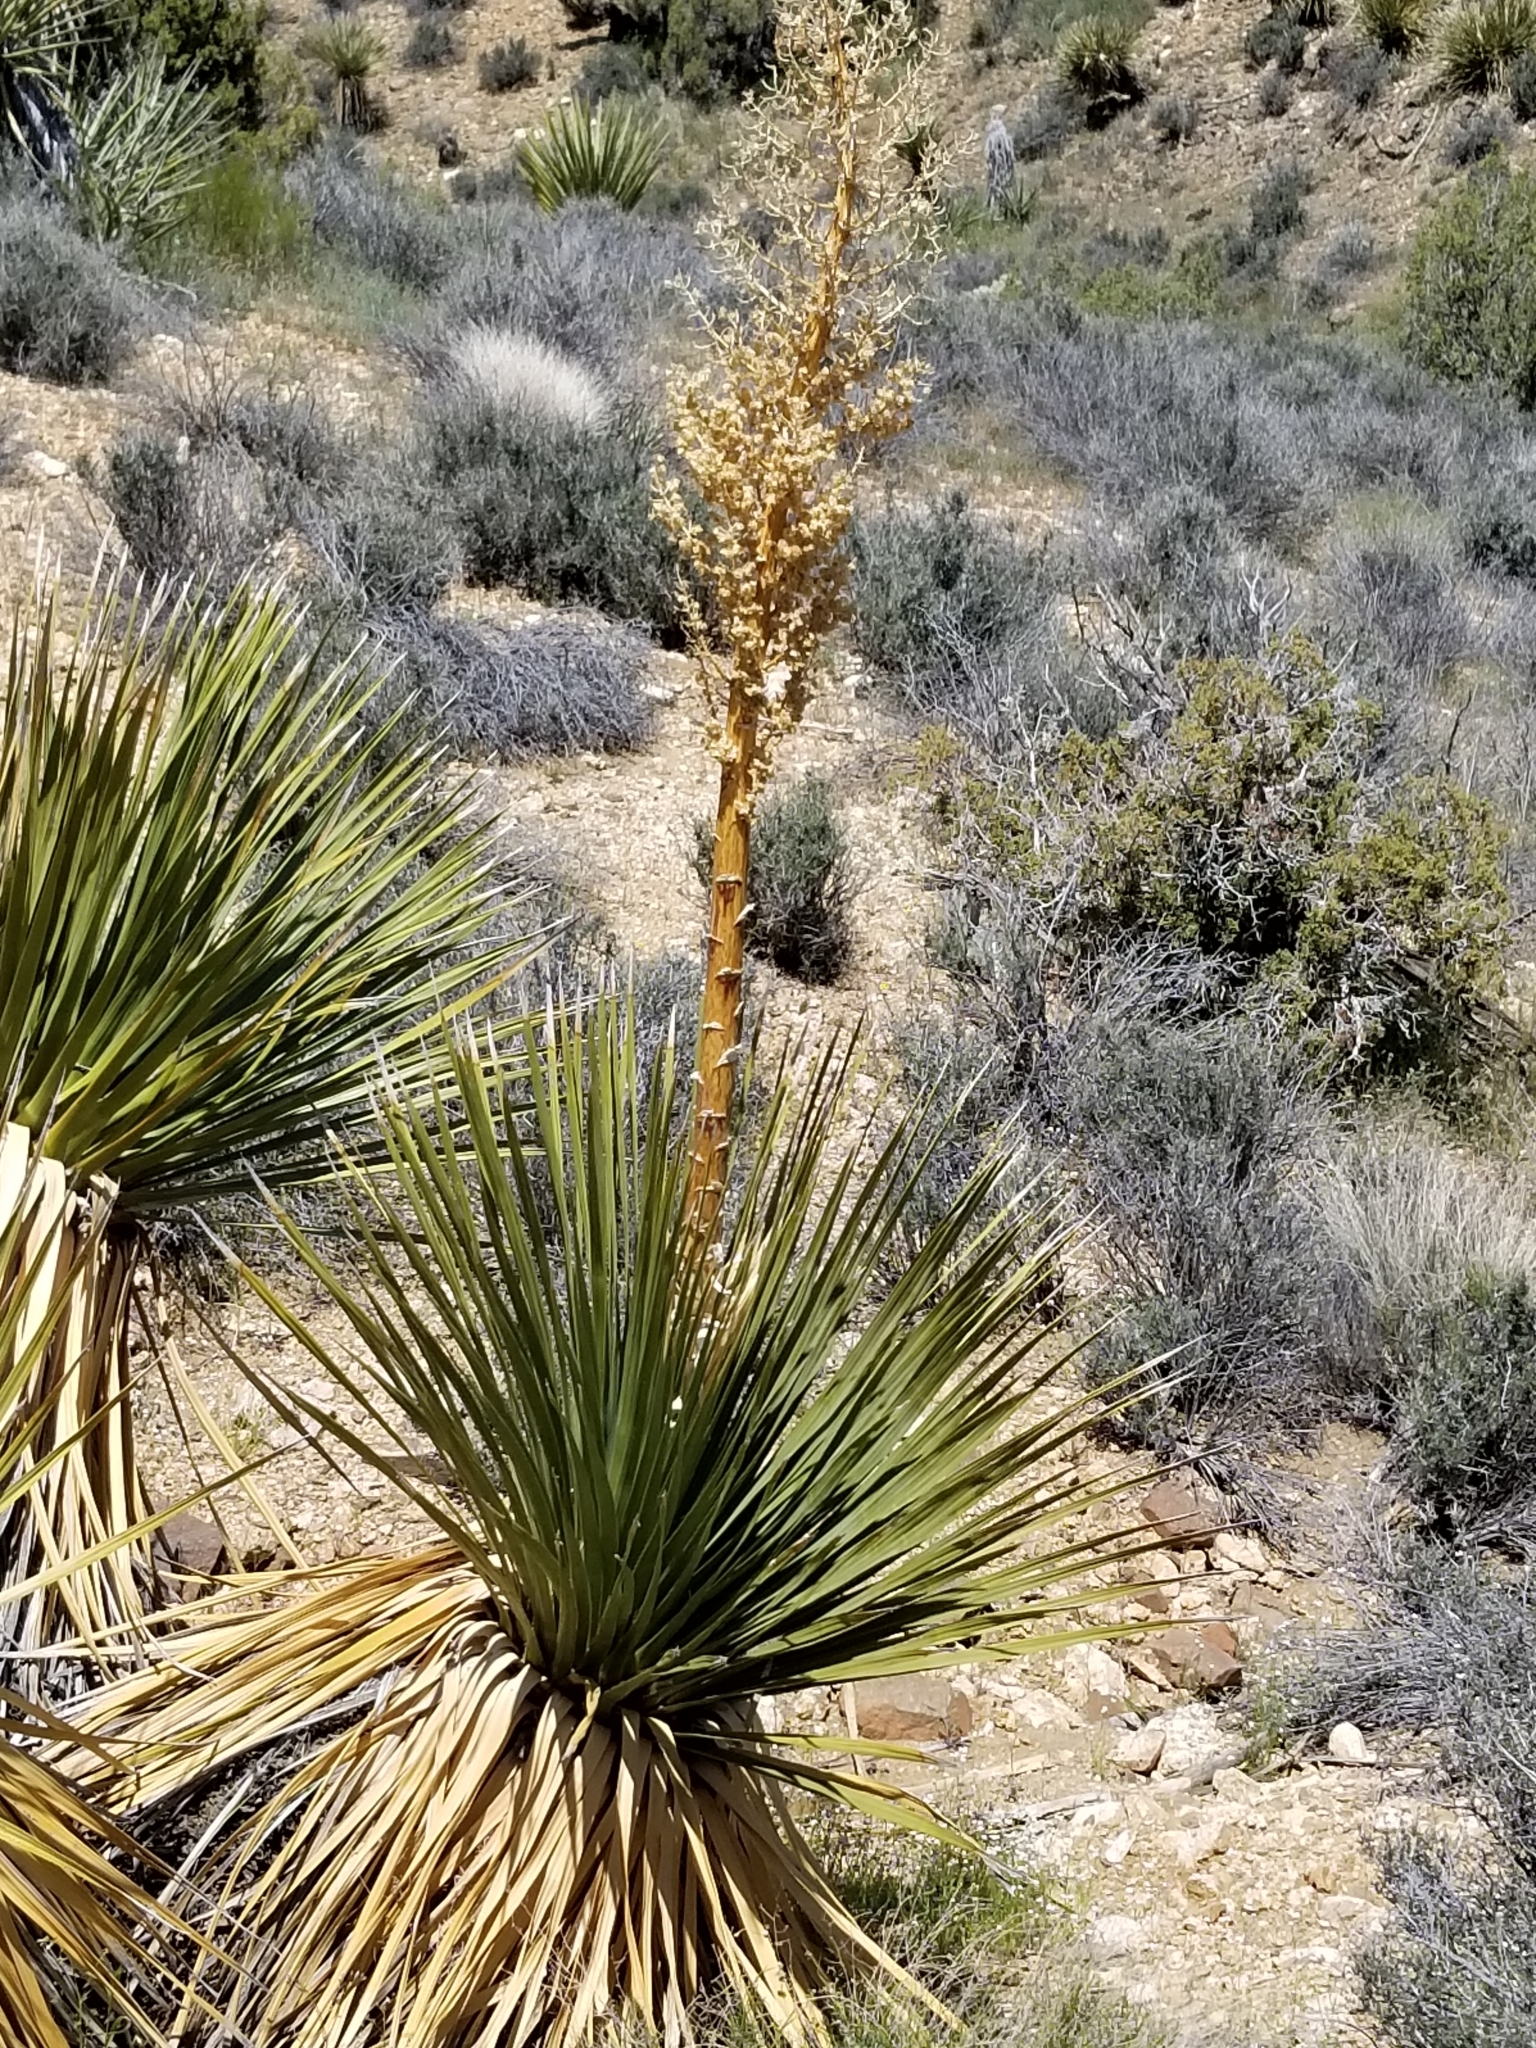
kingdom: Plantae
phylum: Tracheophyta
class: Liliopsida
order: Asparagales
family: Asparagaceae
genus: Nolina
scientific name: Nolina parryi
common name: Parry nolina
